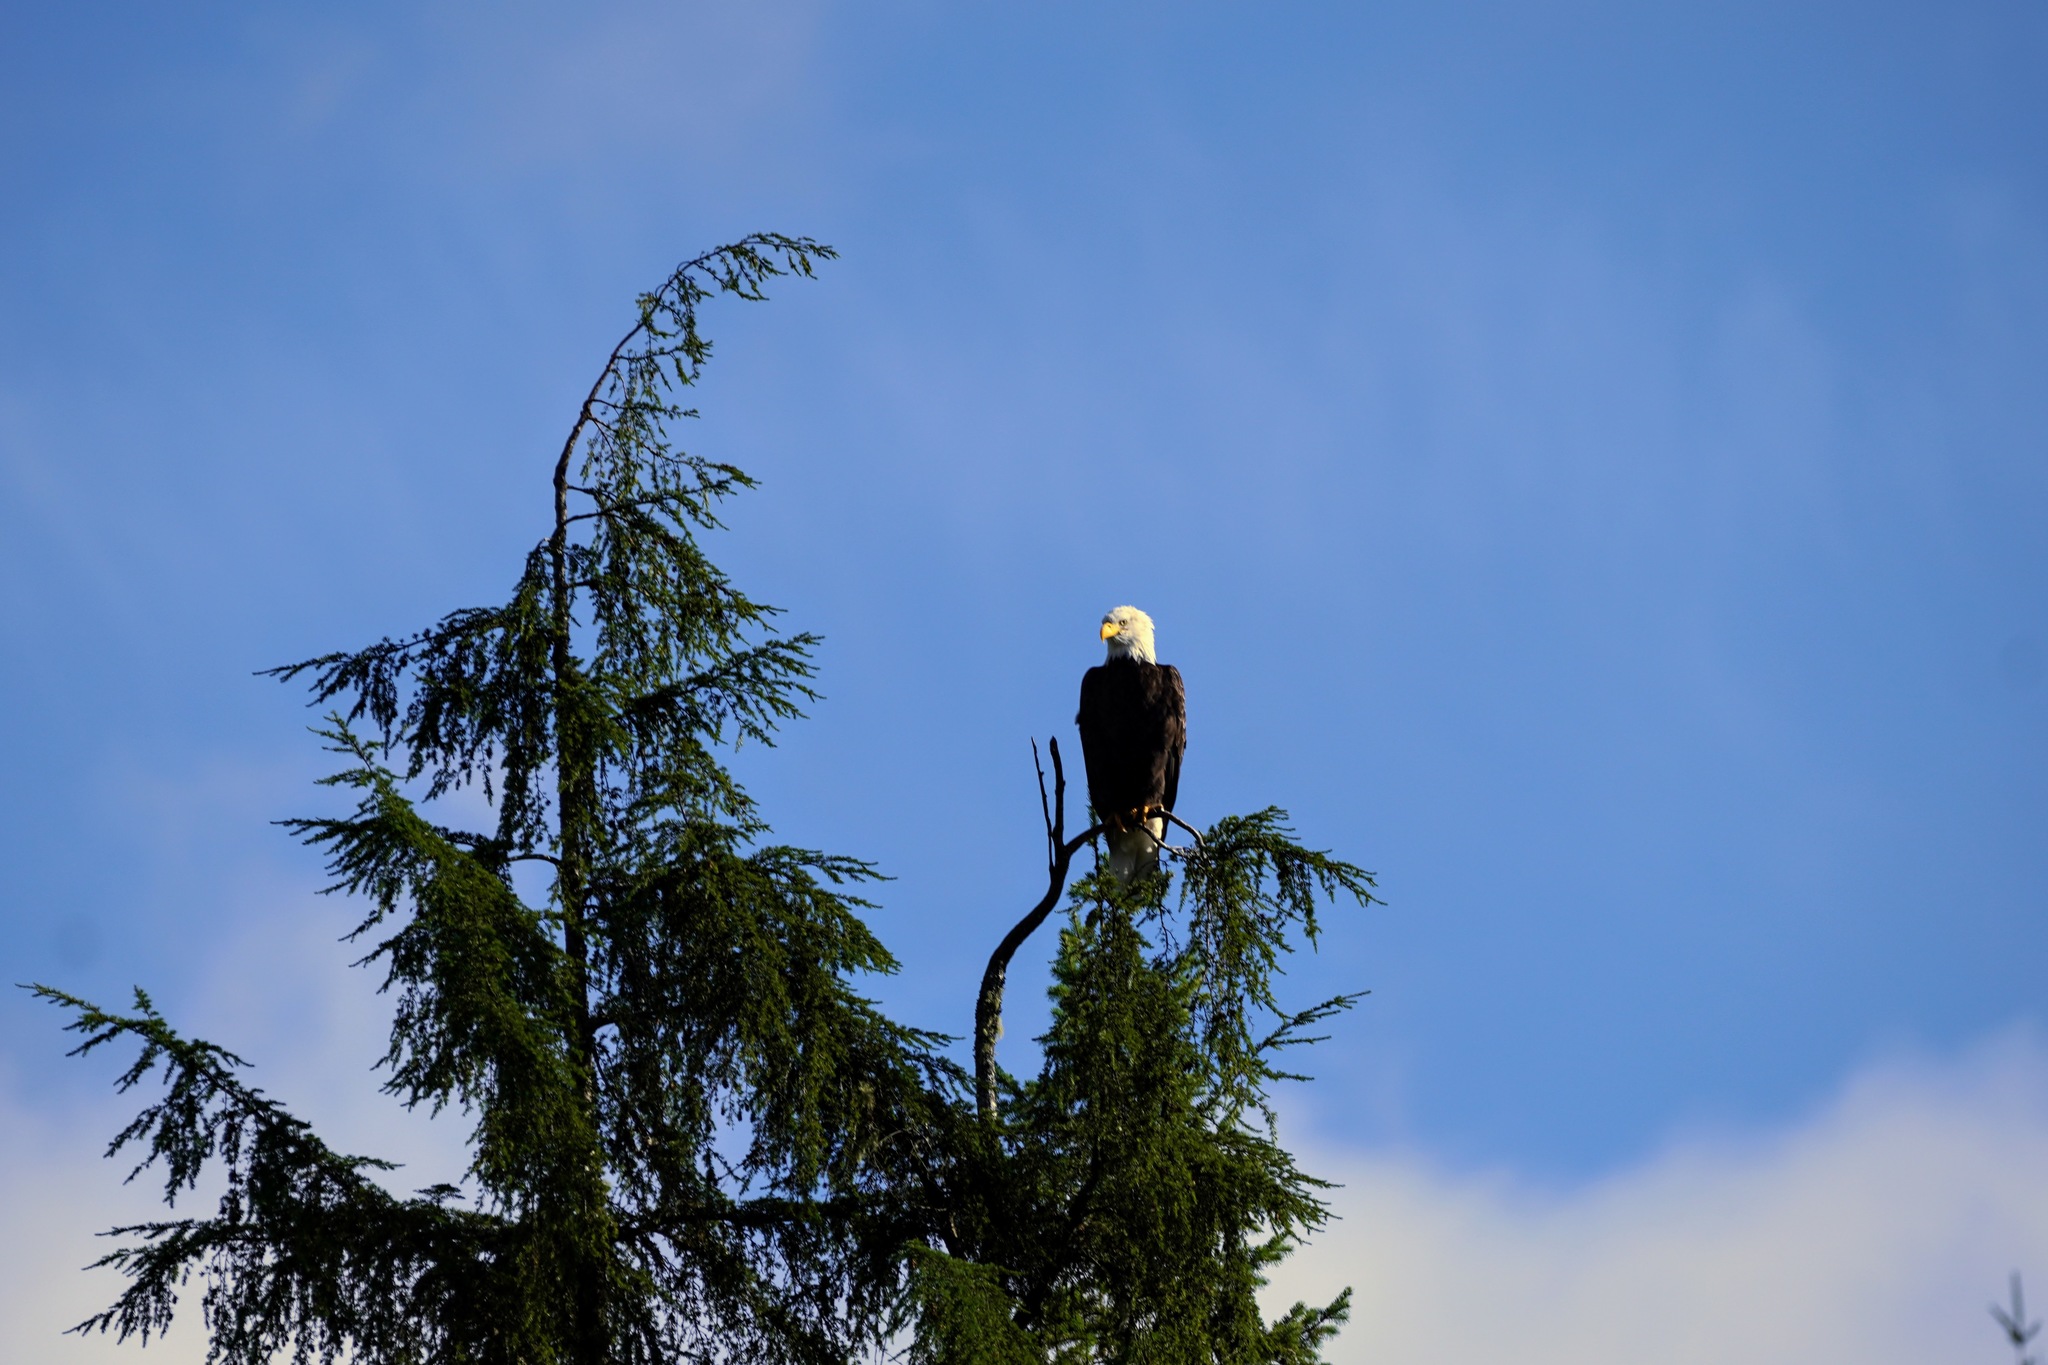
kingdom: Animalia
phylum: Chordata
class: Aves
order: Accipitriformes
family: Accipitridae
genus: Haliaeetus
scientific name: Haliaeetus leucocephalus
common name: Bald eagle
